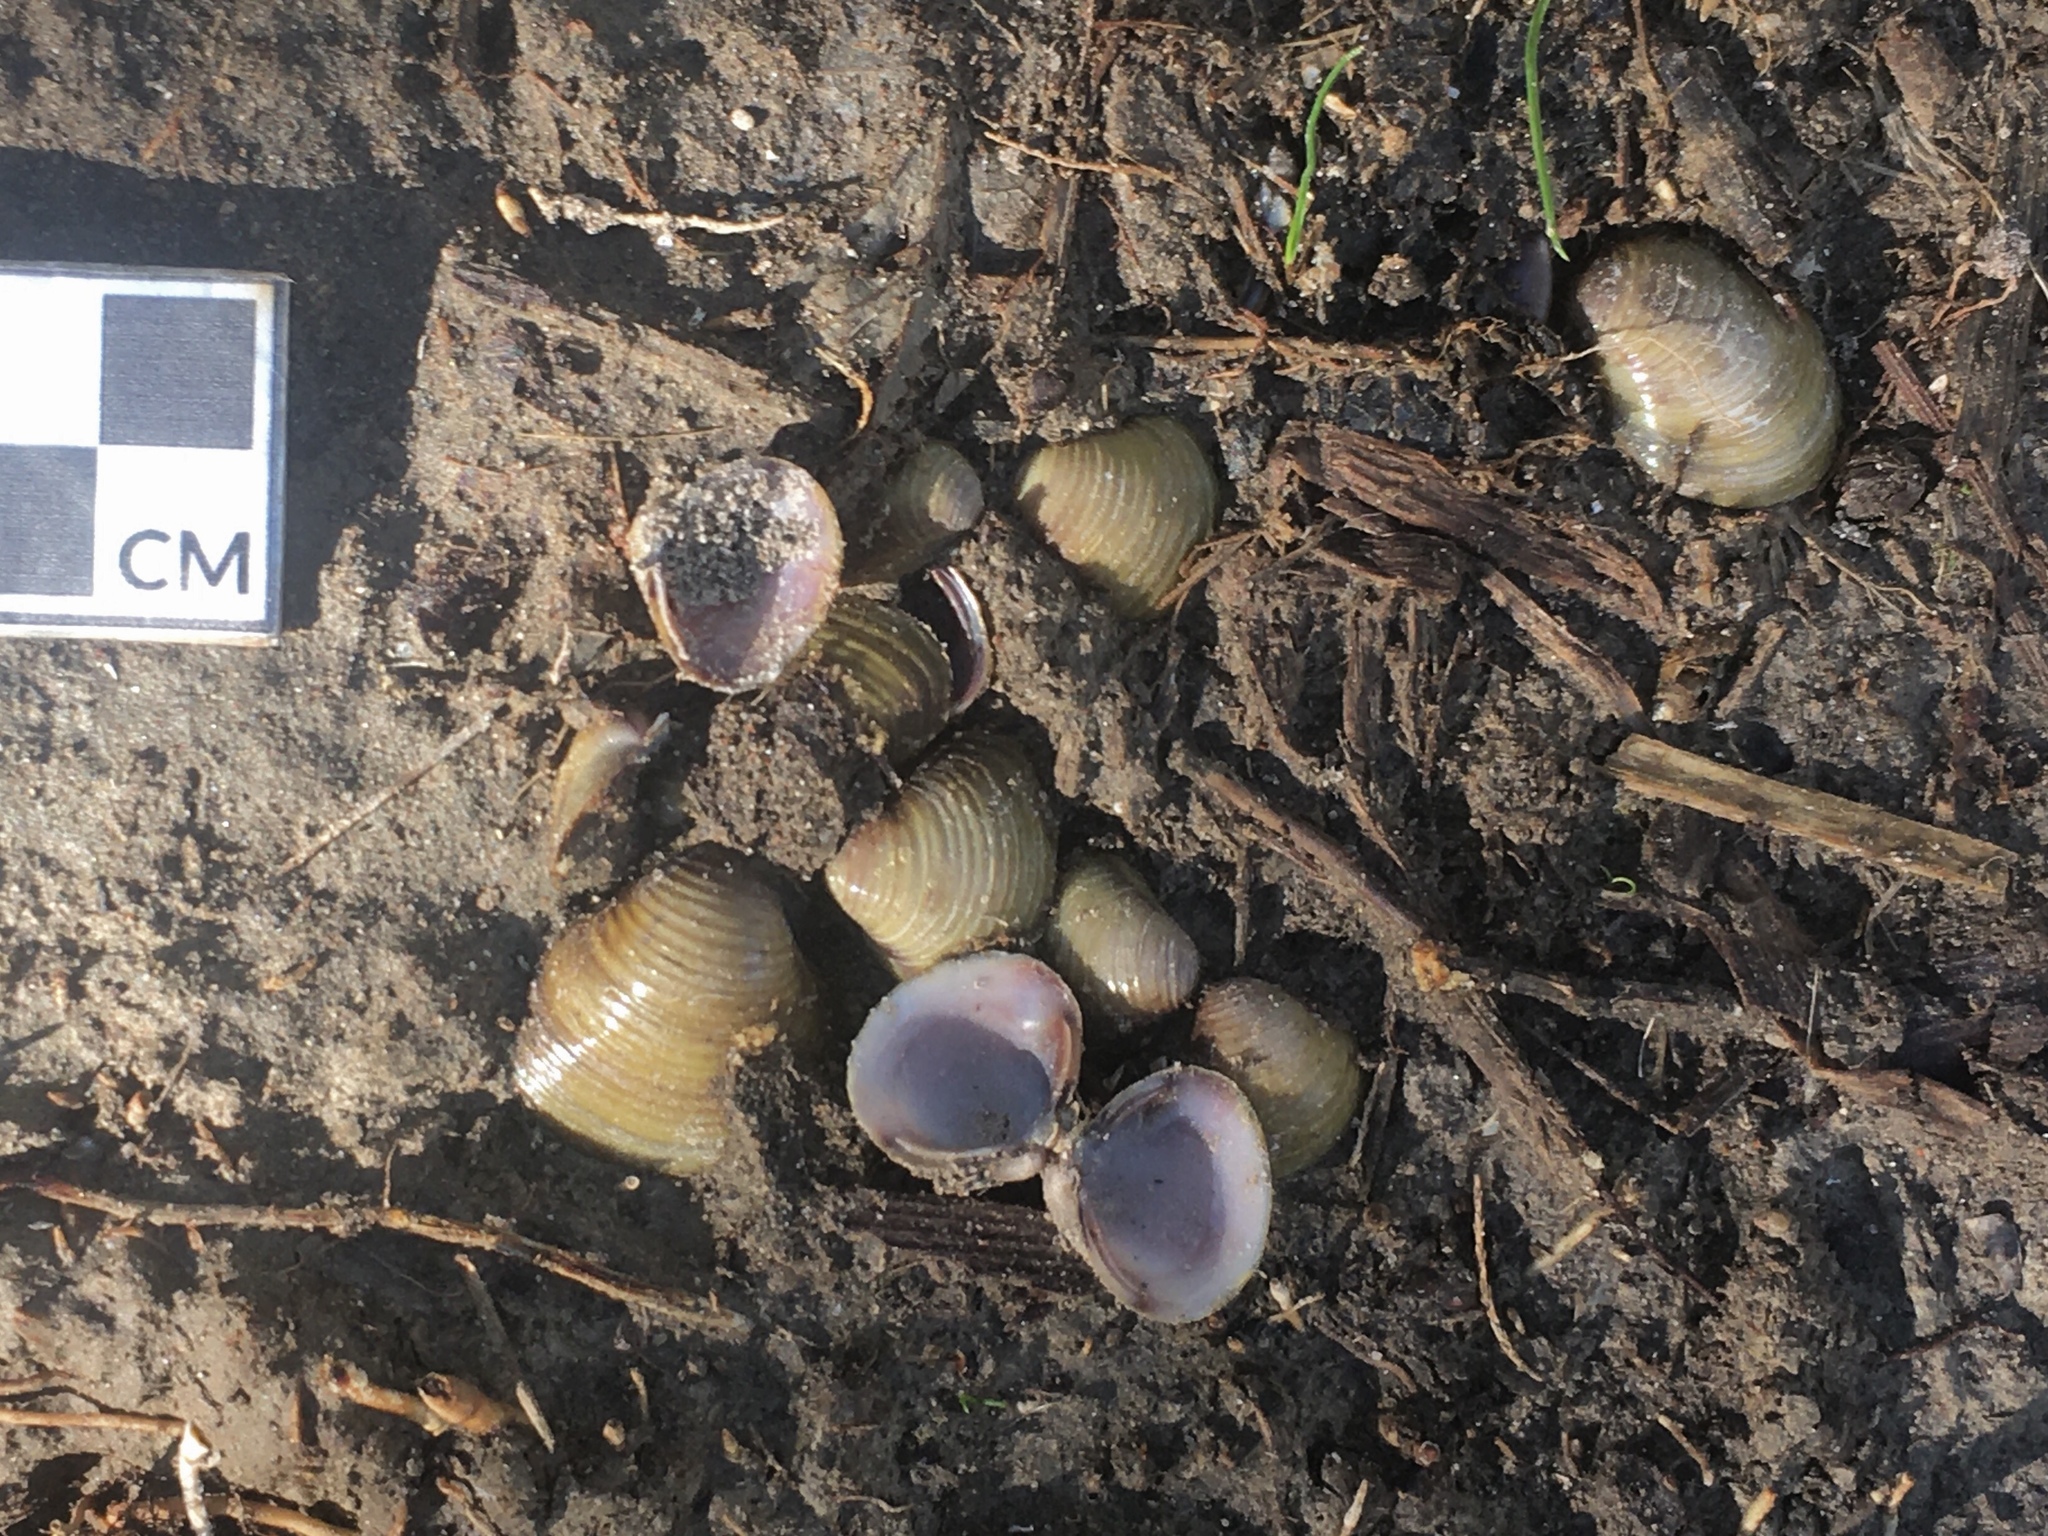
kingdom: Animalia
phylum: Mollusca
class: Bivalvia
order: Venerida
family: Cyrenidae
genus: Corbicula
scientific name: Corbicula fluminea
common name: Asian clam
